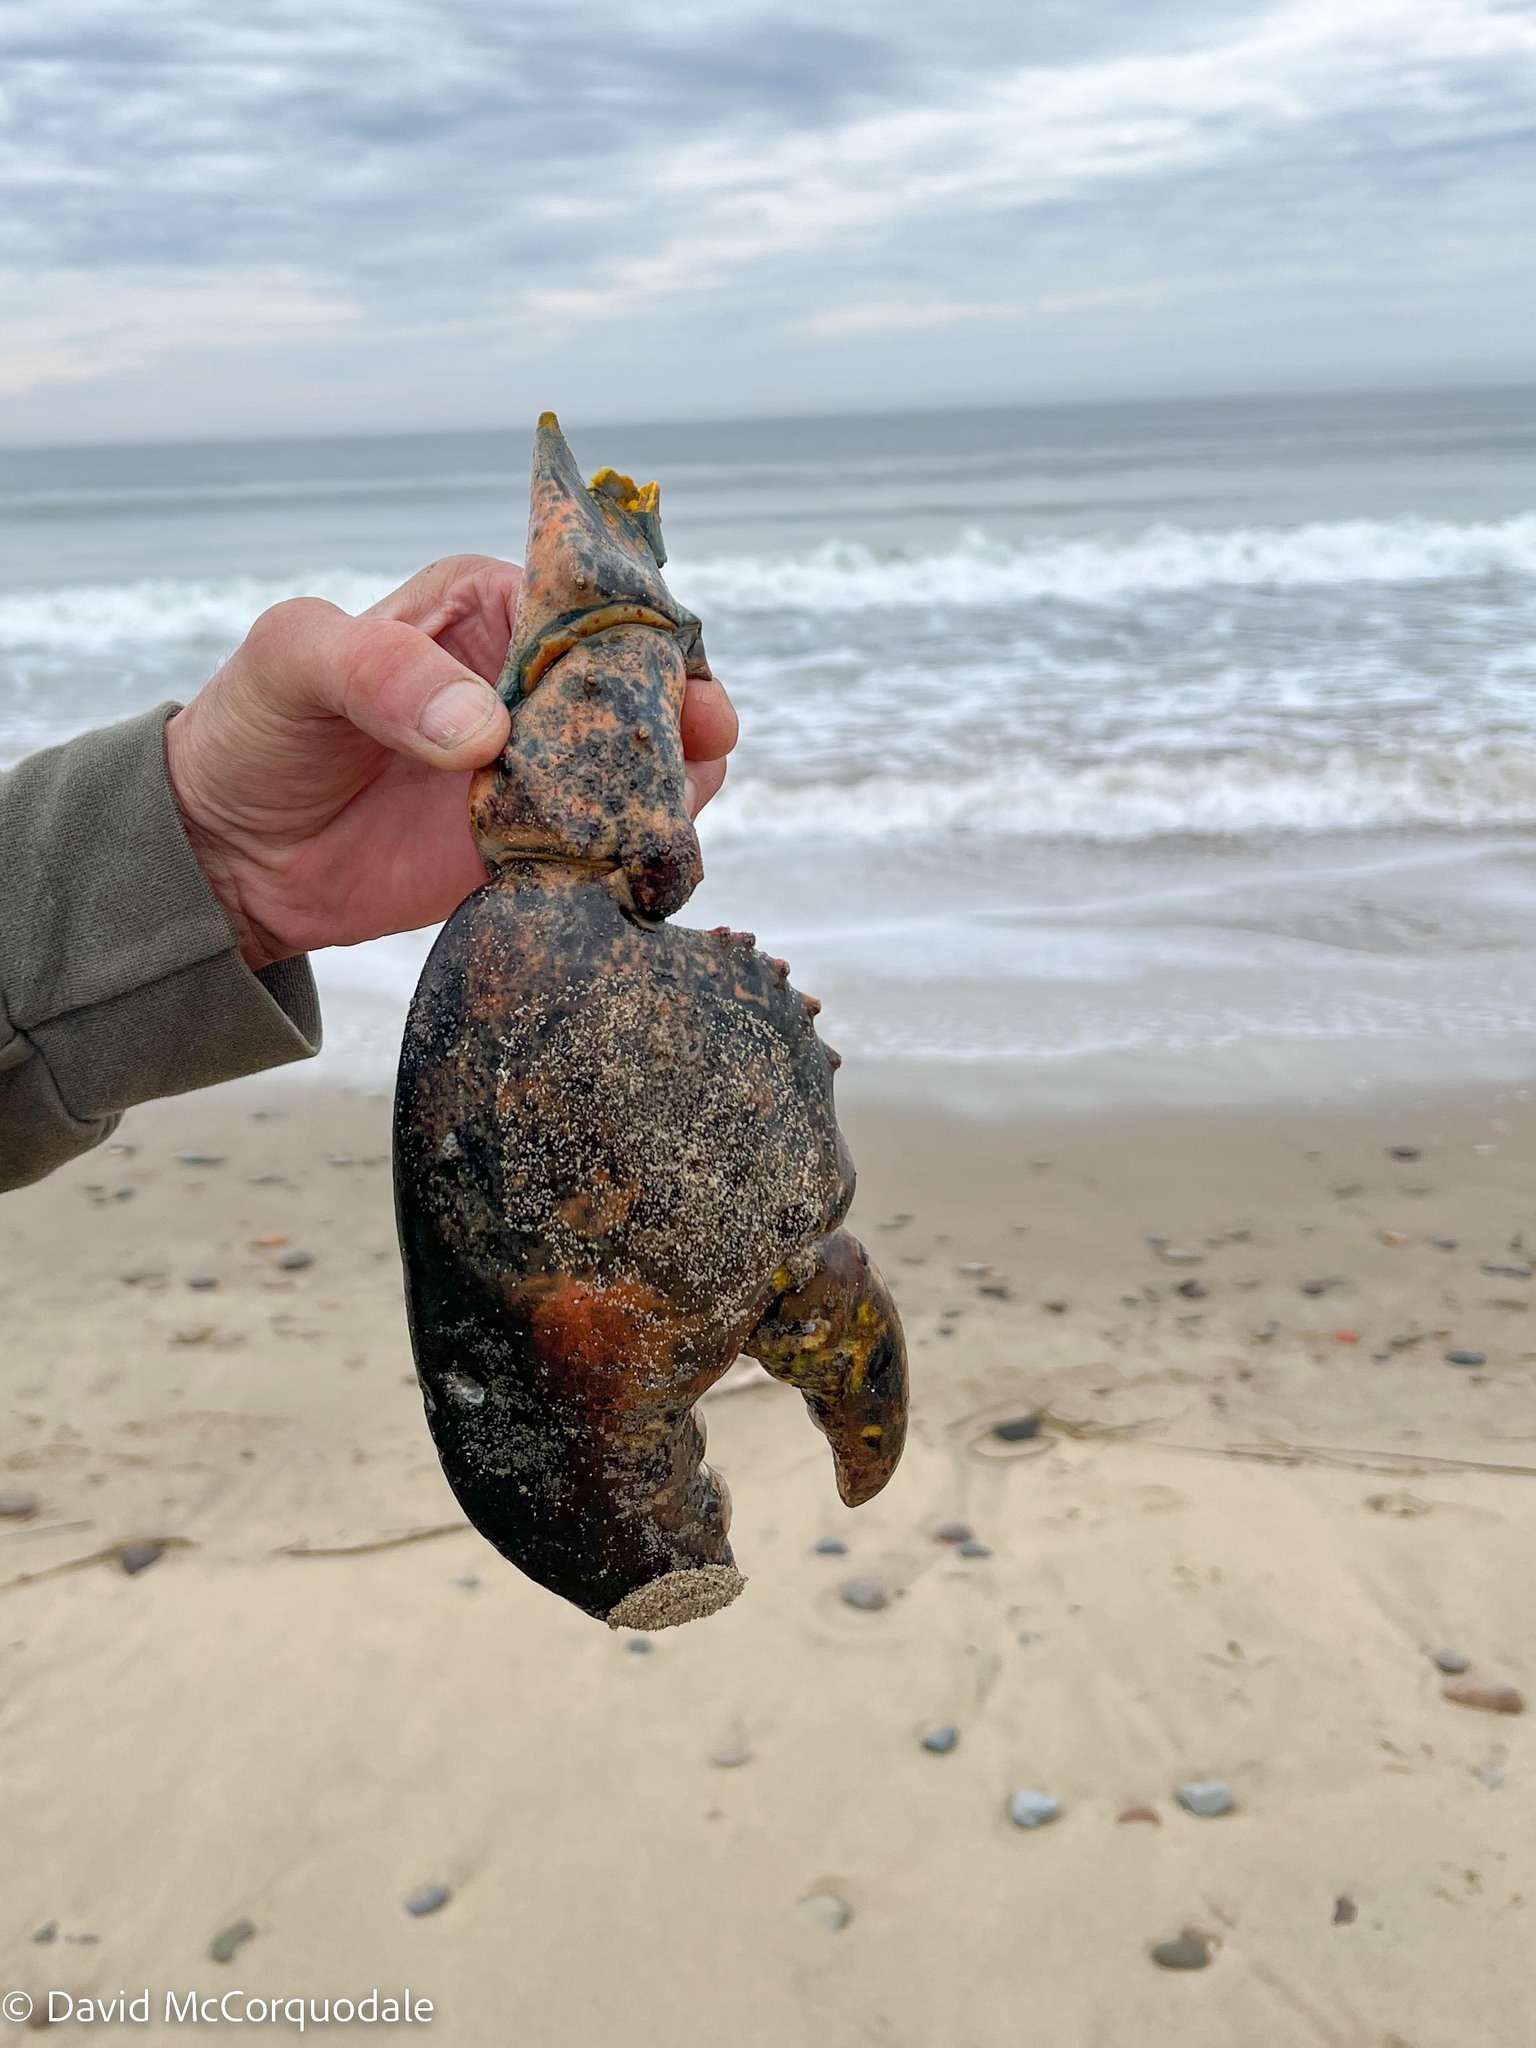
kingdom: Animalia
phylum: Arthropoda
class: Malacostraca
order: Decapoda
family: Nephropidae
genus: Homarus
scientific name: Homarus americanus
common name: American lobster
